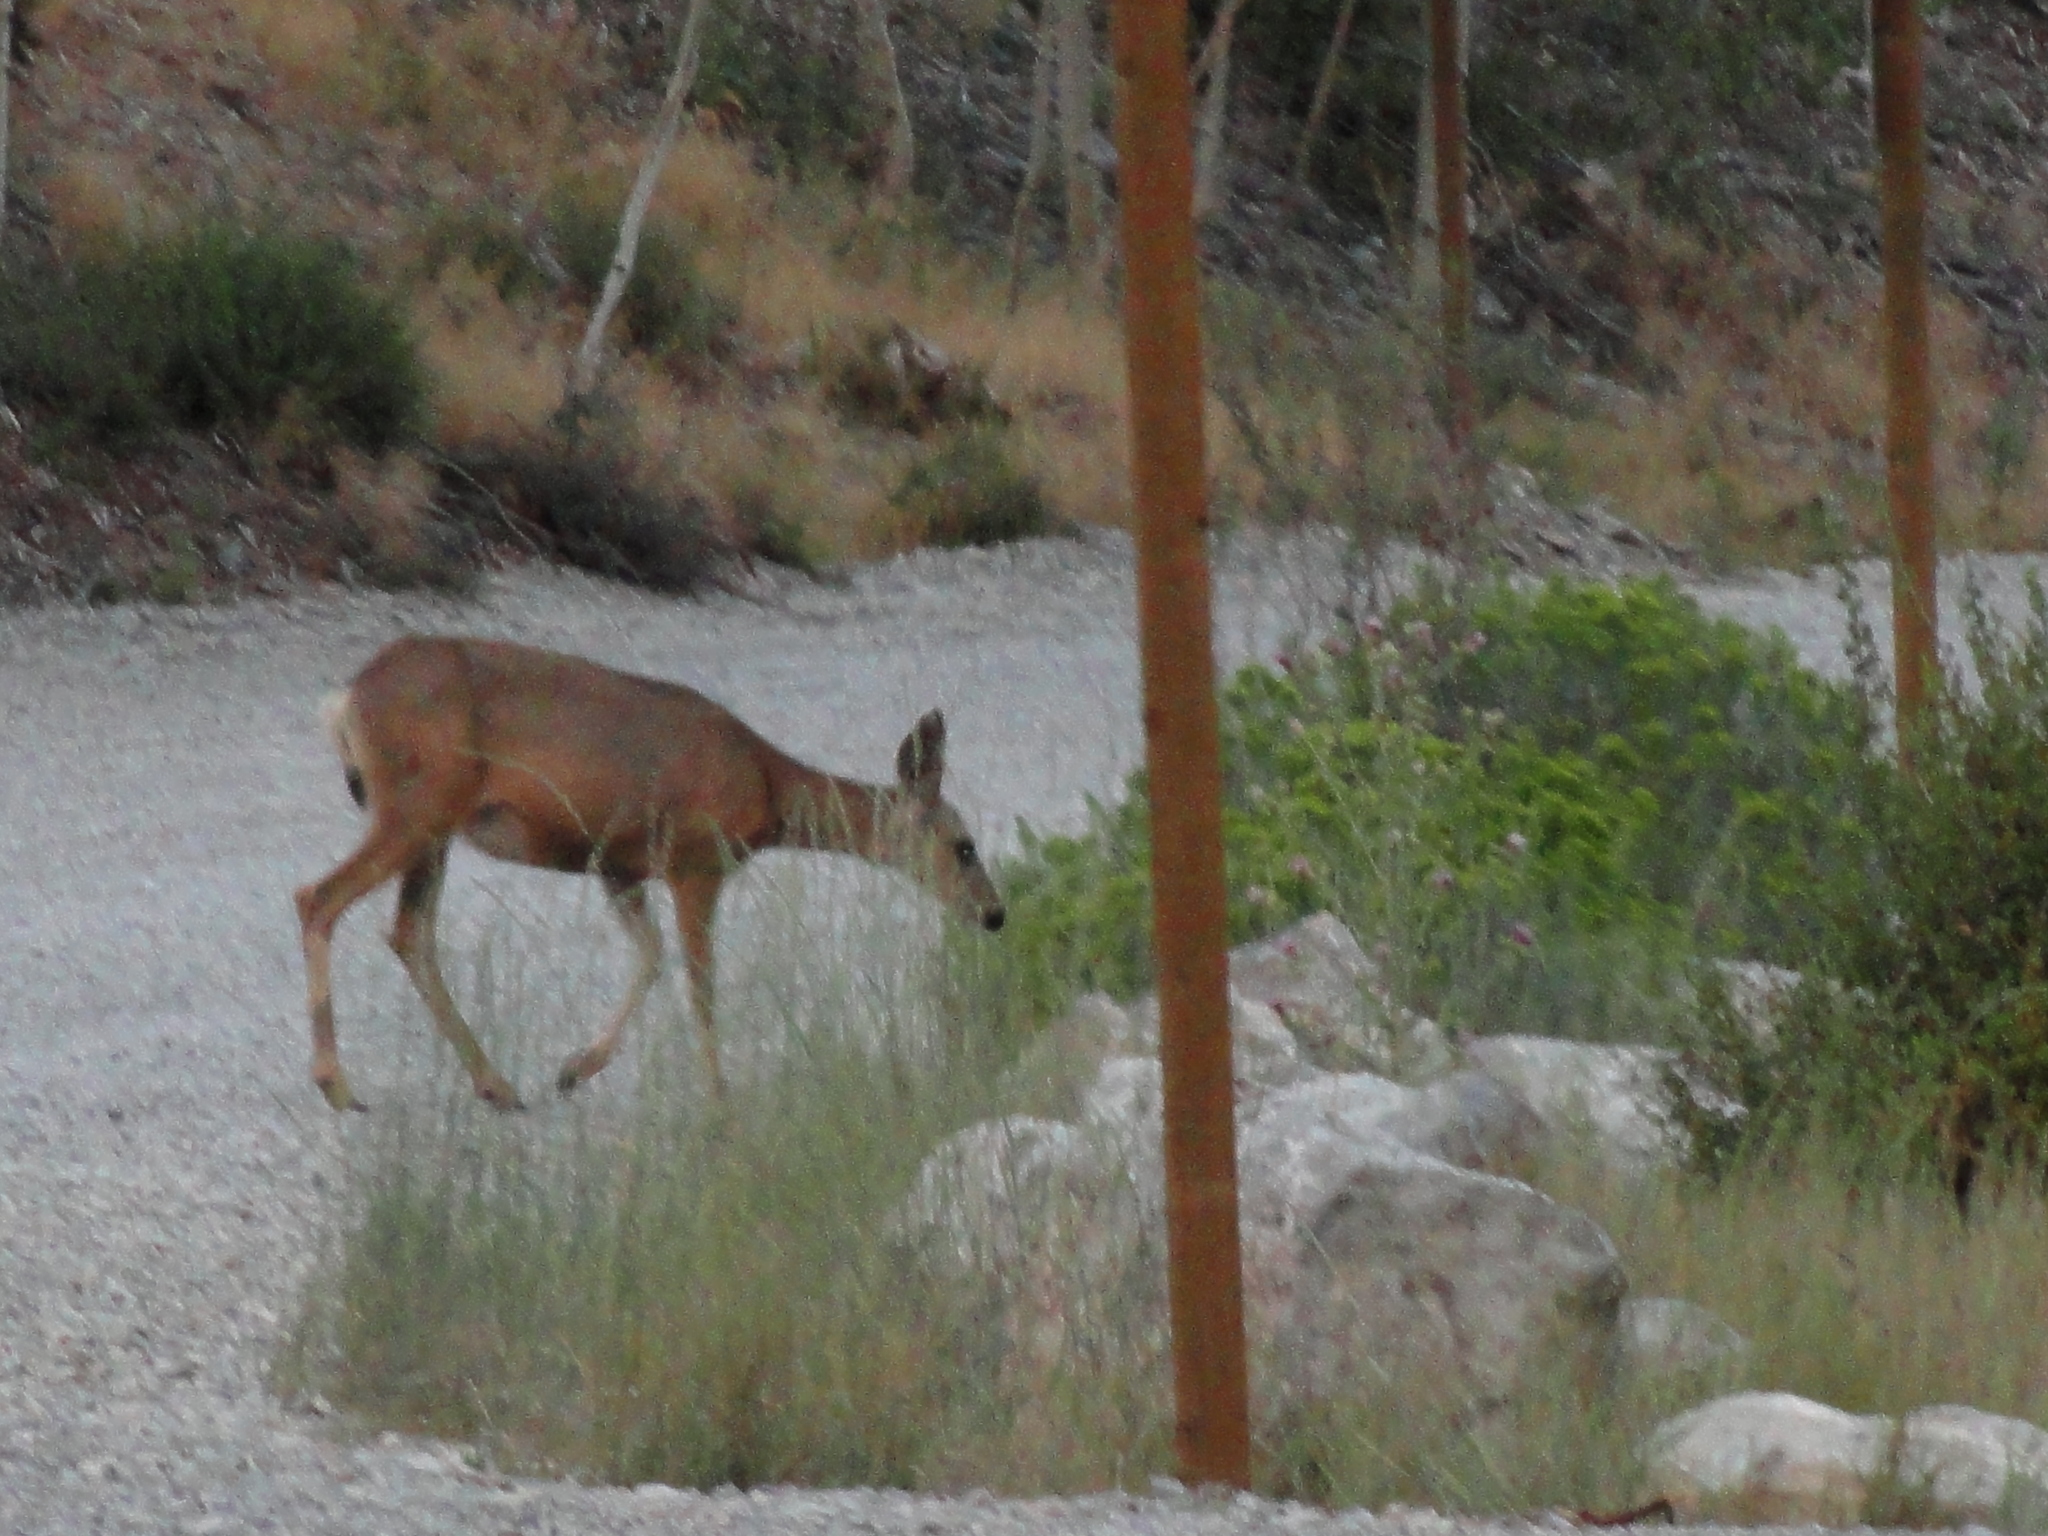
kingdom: Animalia
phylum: Chordata
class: Mammalia
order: Artiodactyla
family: Cervidae
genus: Odocoileus
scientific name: Odocoileus hemionus
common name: Mule deer
